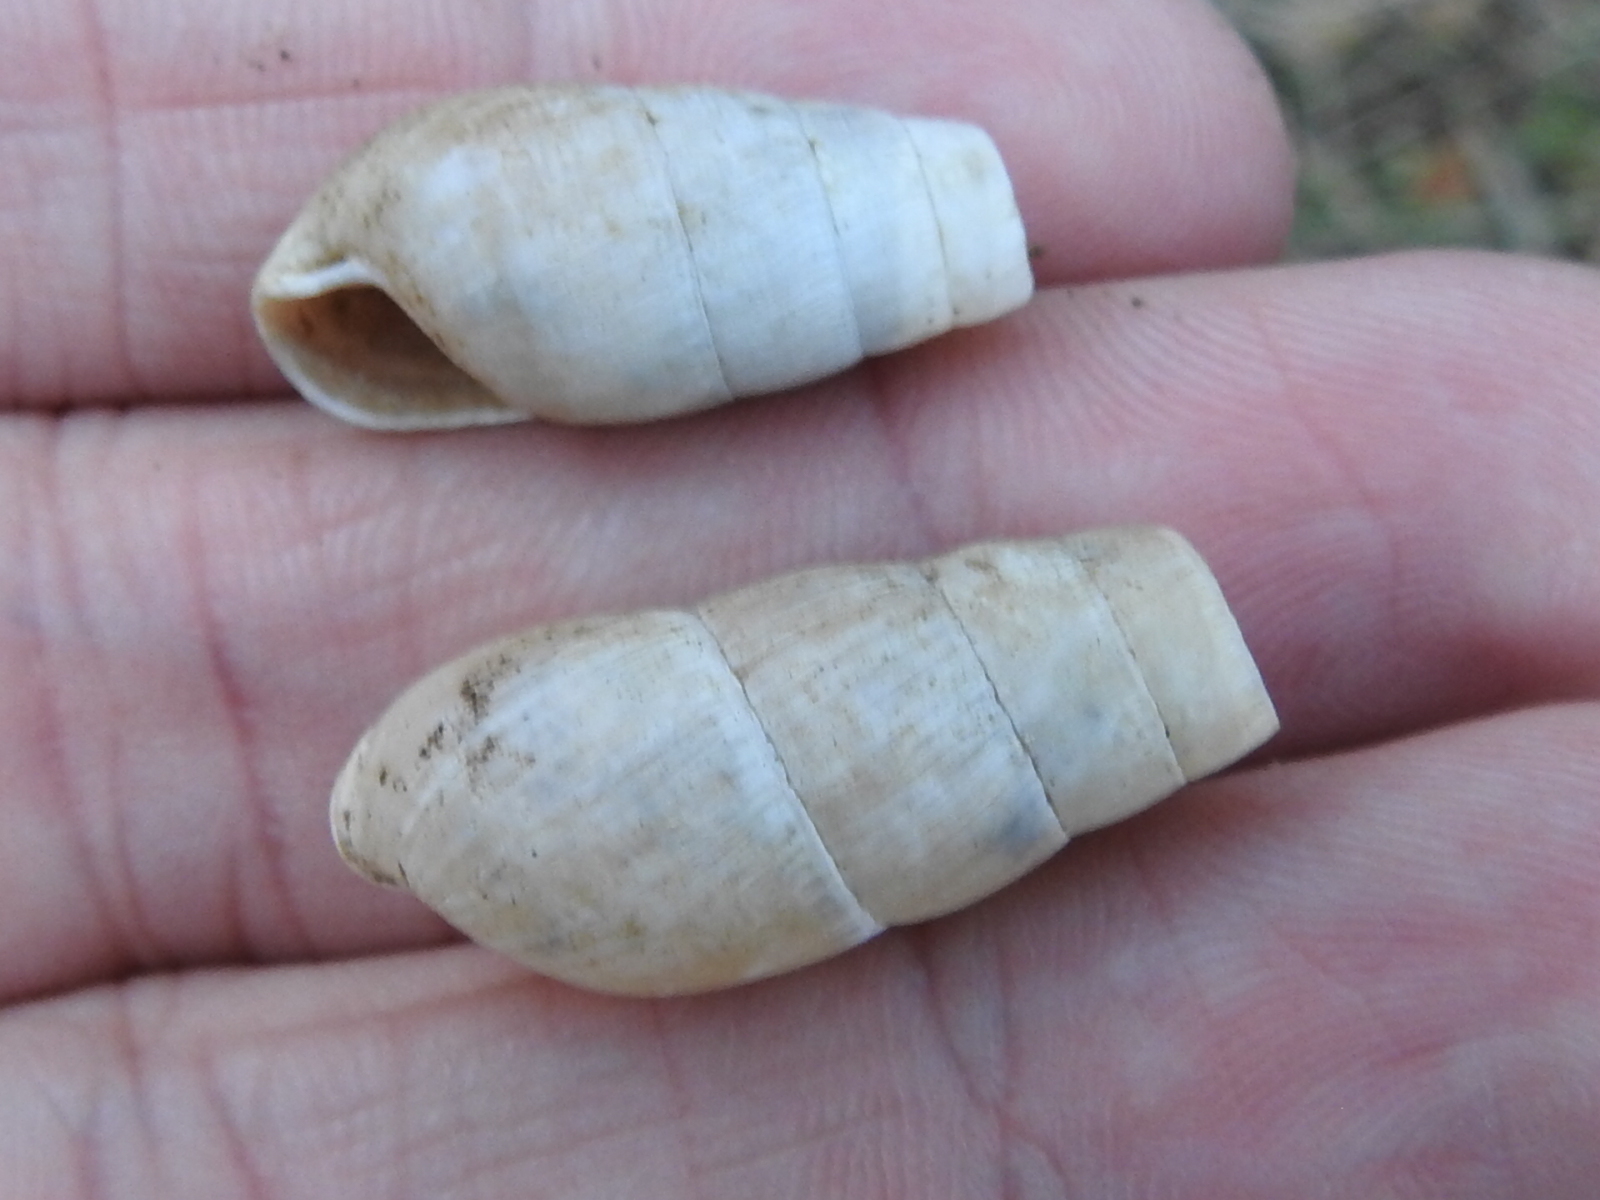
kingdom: Animalia
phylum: Mollusca
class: Gastropoda
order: Stylommatophora
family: Achatinidae
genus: Rumina
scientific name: Rumina decollata
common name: Decollate snail
